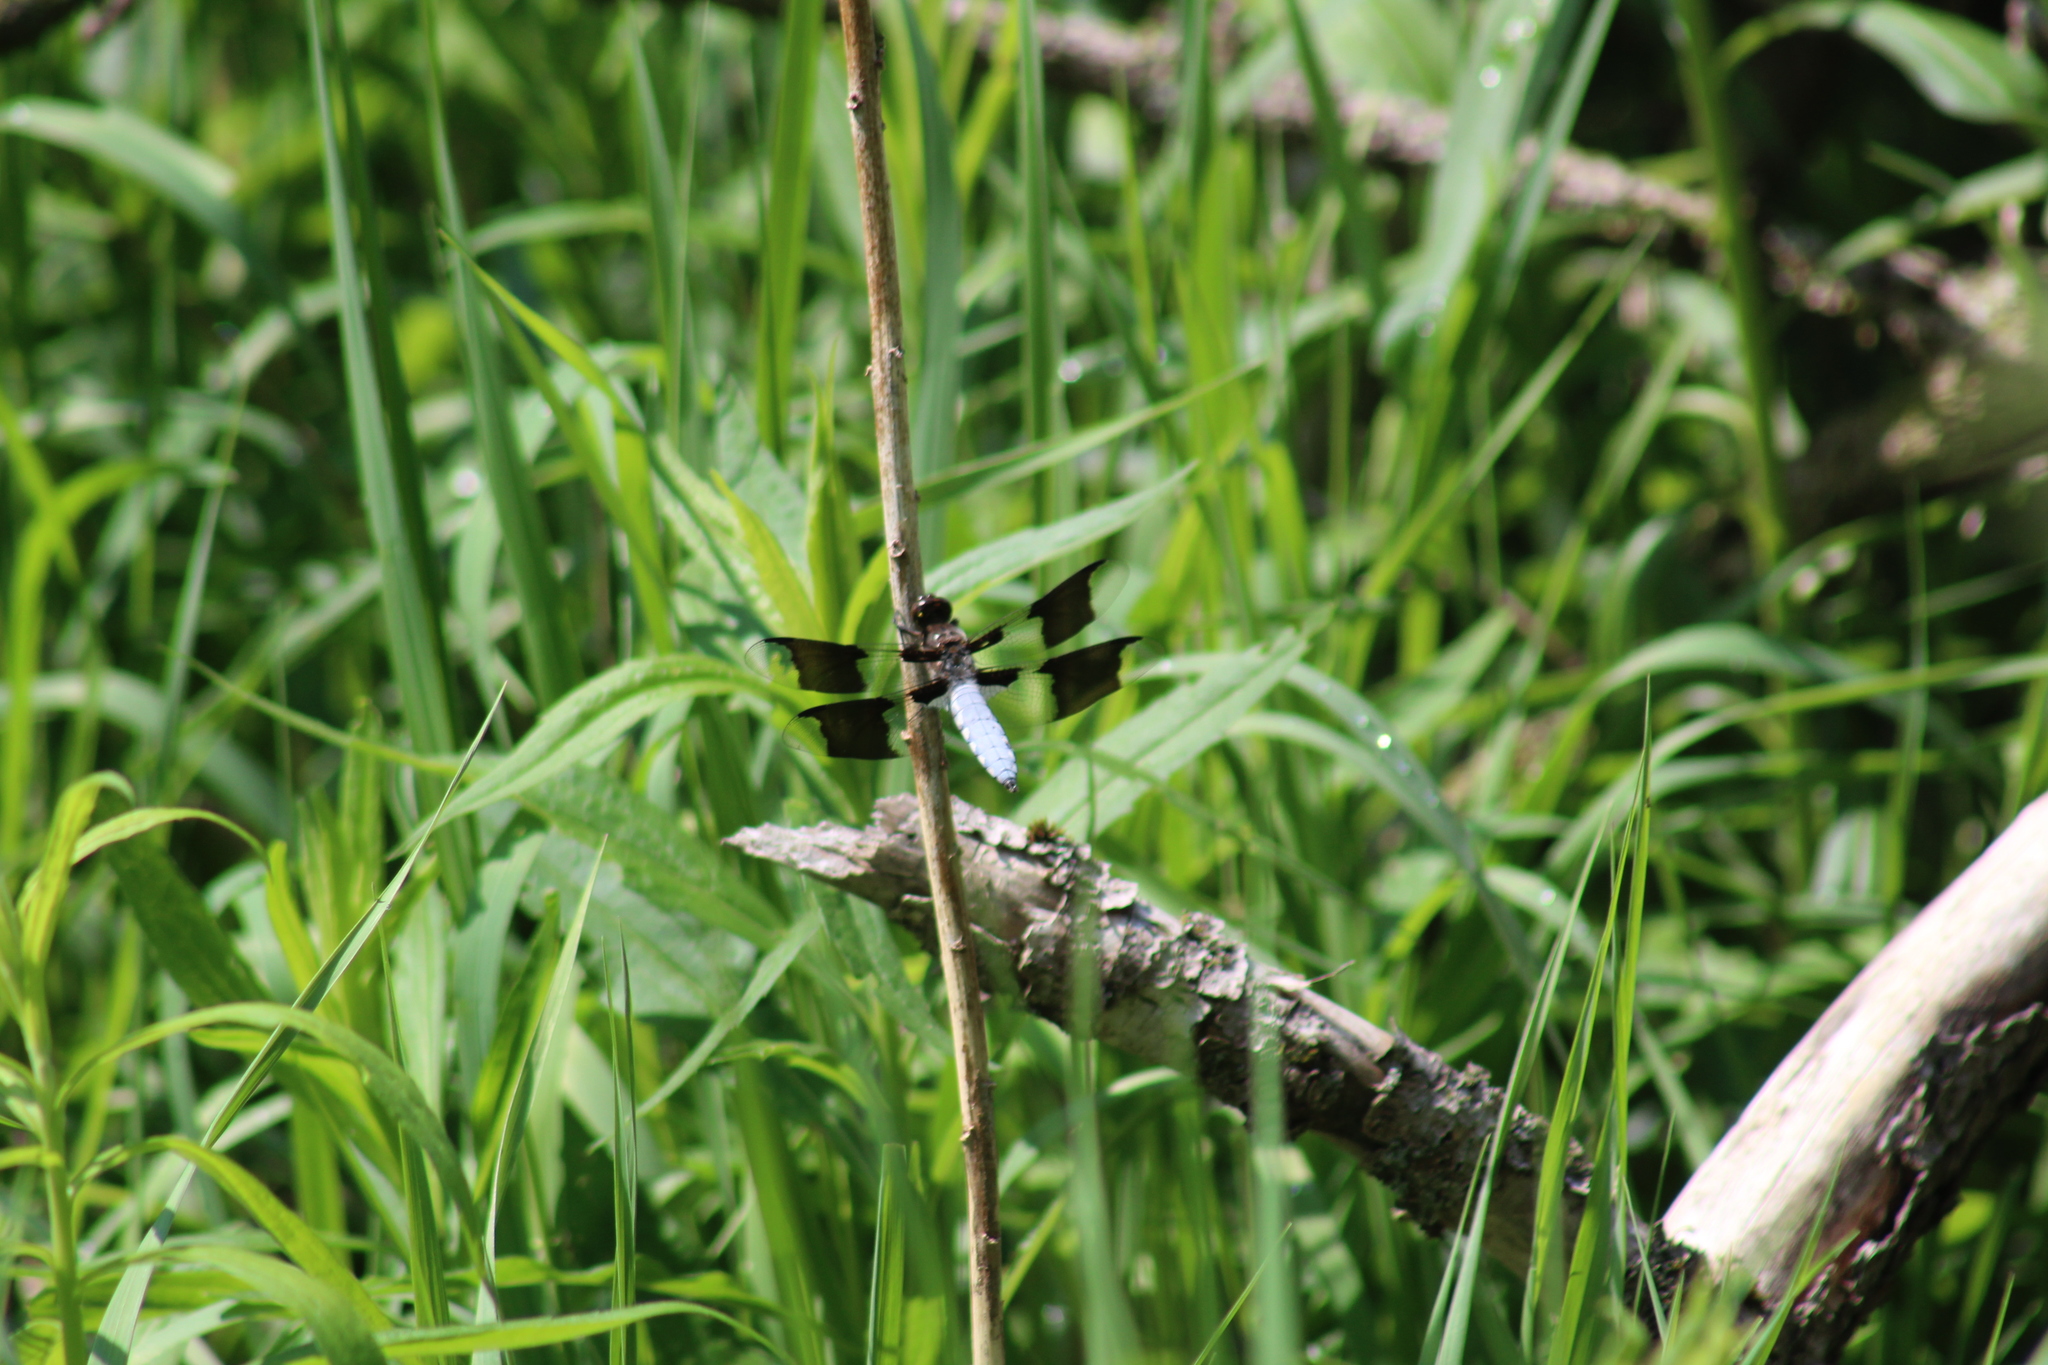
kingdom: Animalia
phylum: Arthropoda
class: Insecta
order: Odonata
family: Libellulidae
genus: Plathemis
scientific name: Plathemis lydia
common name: Common whitetail
